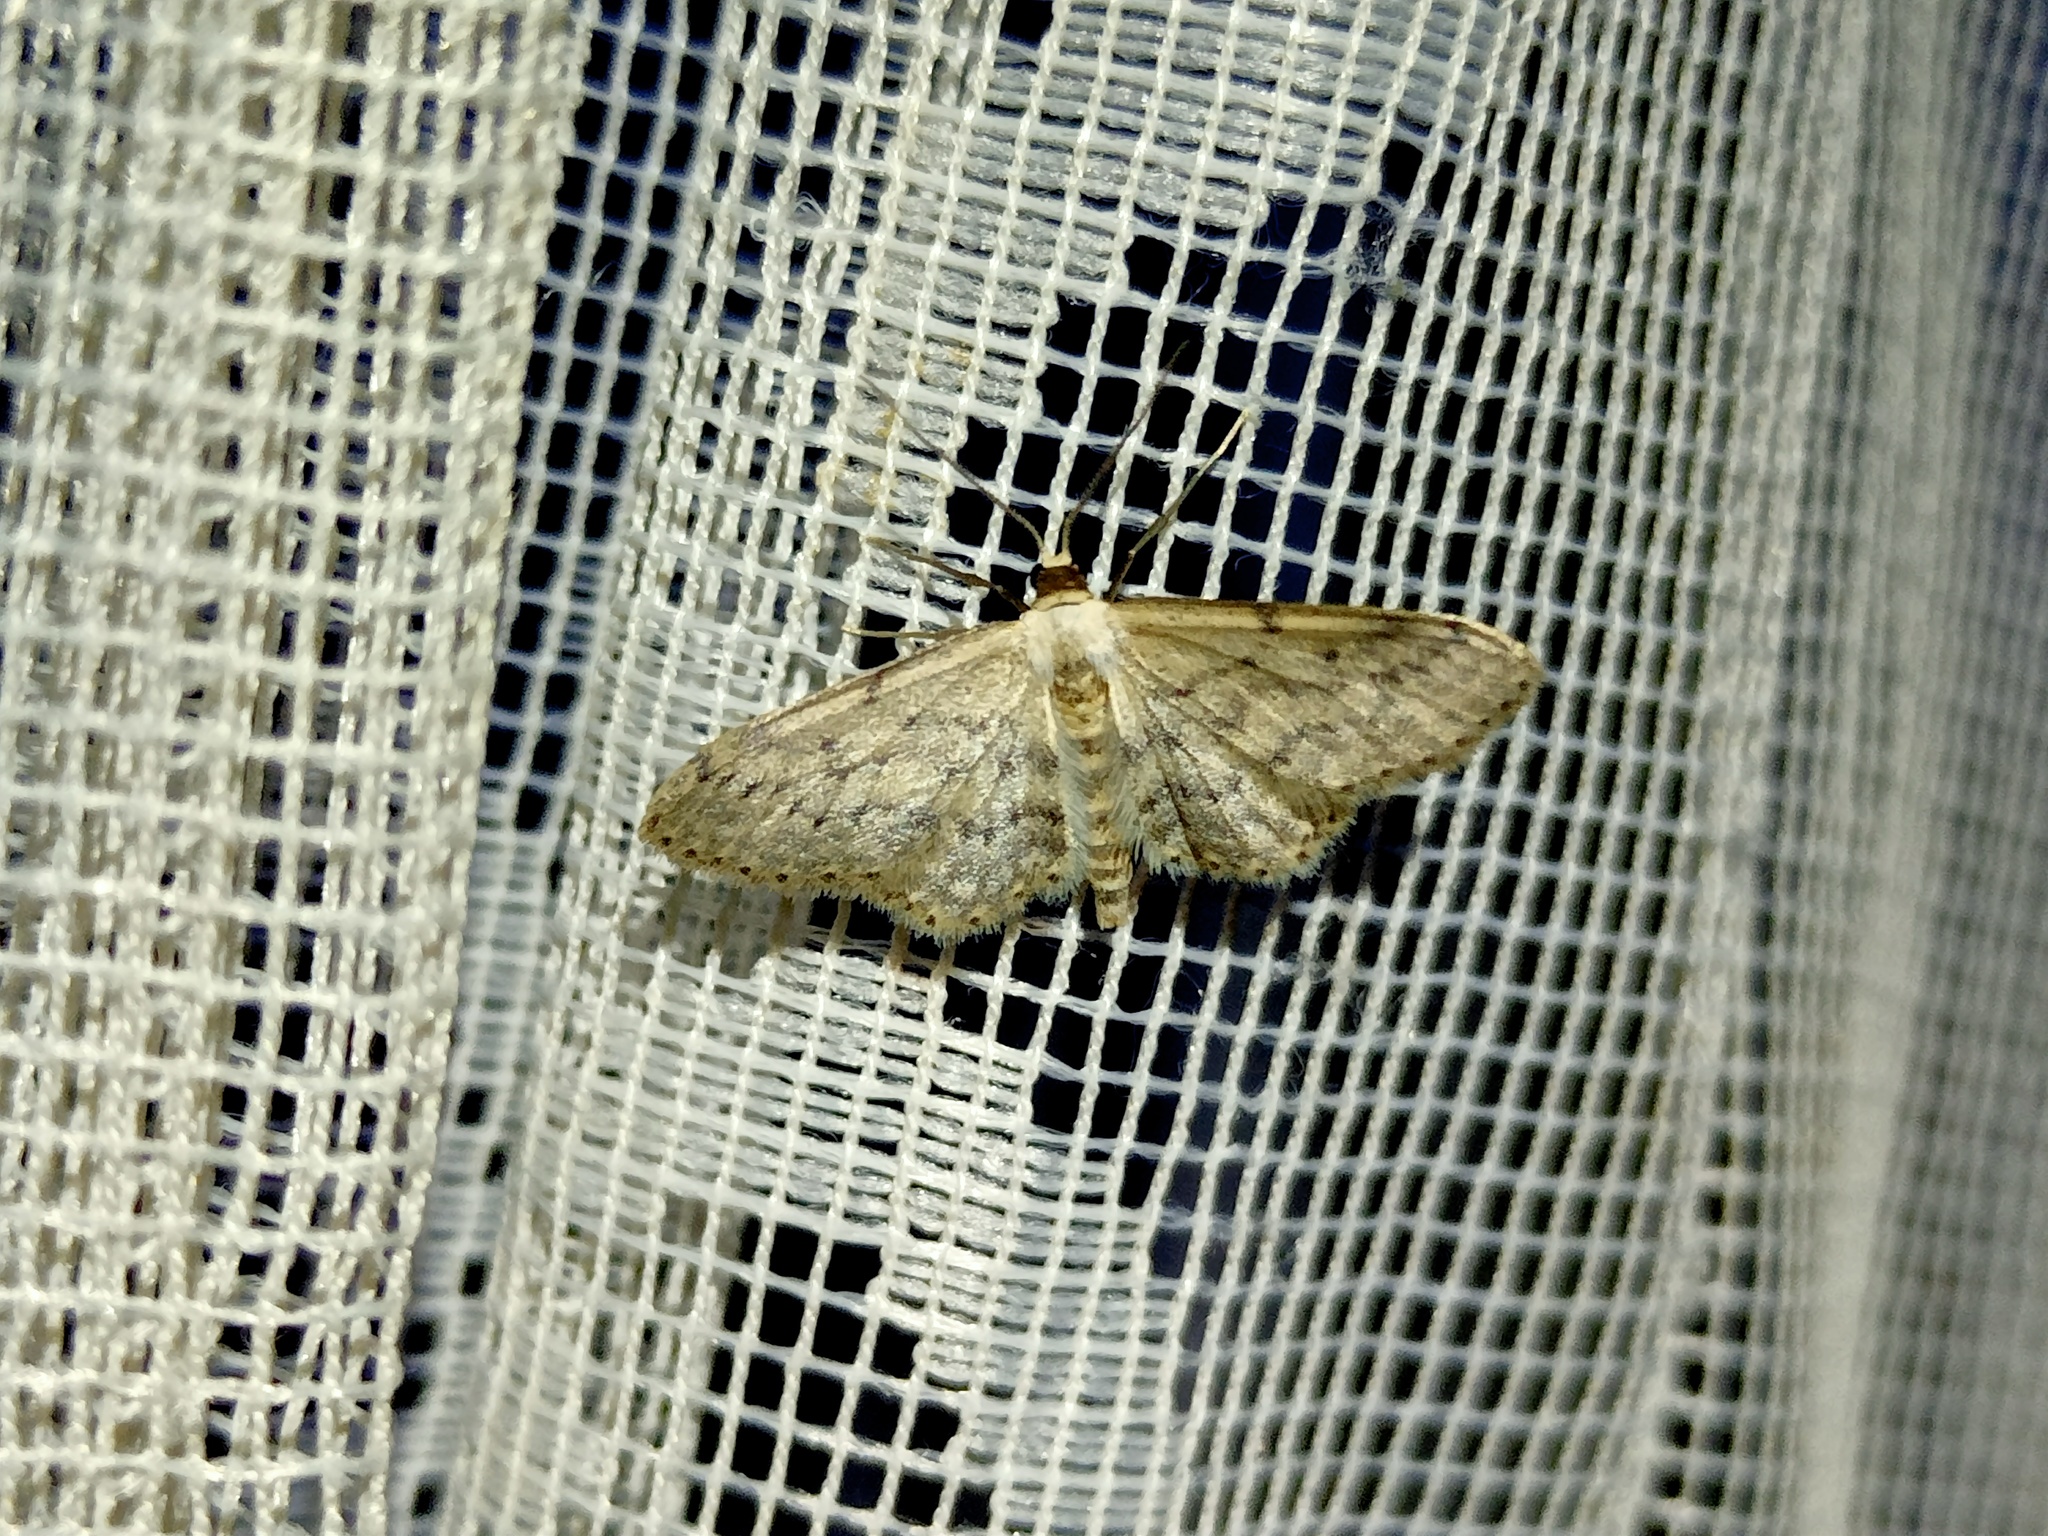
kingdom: Animalia
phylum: Arthropoda
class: Insecta
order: Lepidoptera
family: Geometridae
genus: Idaea
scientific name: Idaea seriata
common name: Small dusty wave
